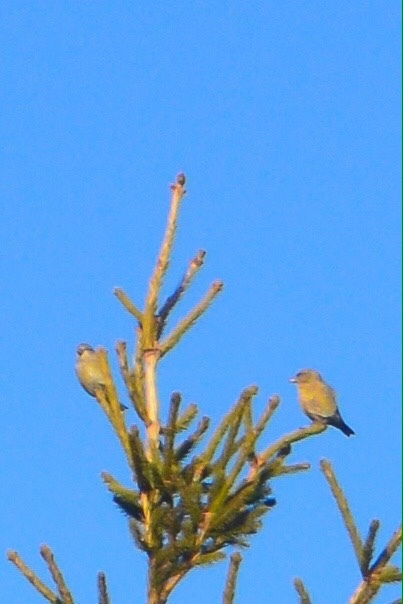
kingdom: Animalia
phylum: Chordata
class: Aves
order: Passeriformes
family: Fringillidae
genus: Loxia
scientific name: Loxia curvirostra
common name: Red crossbill
